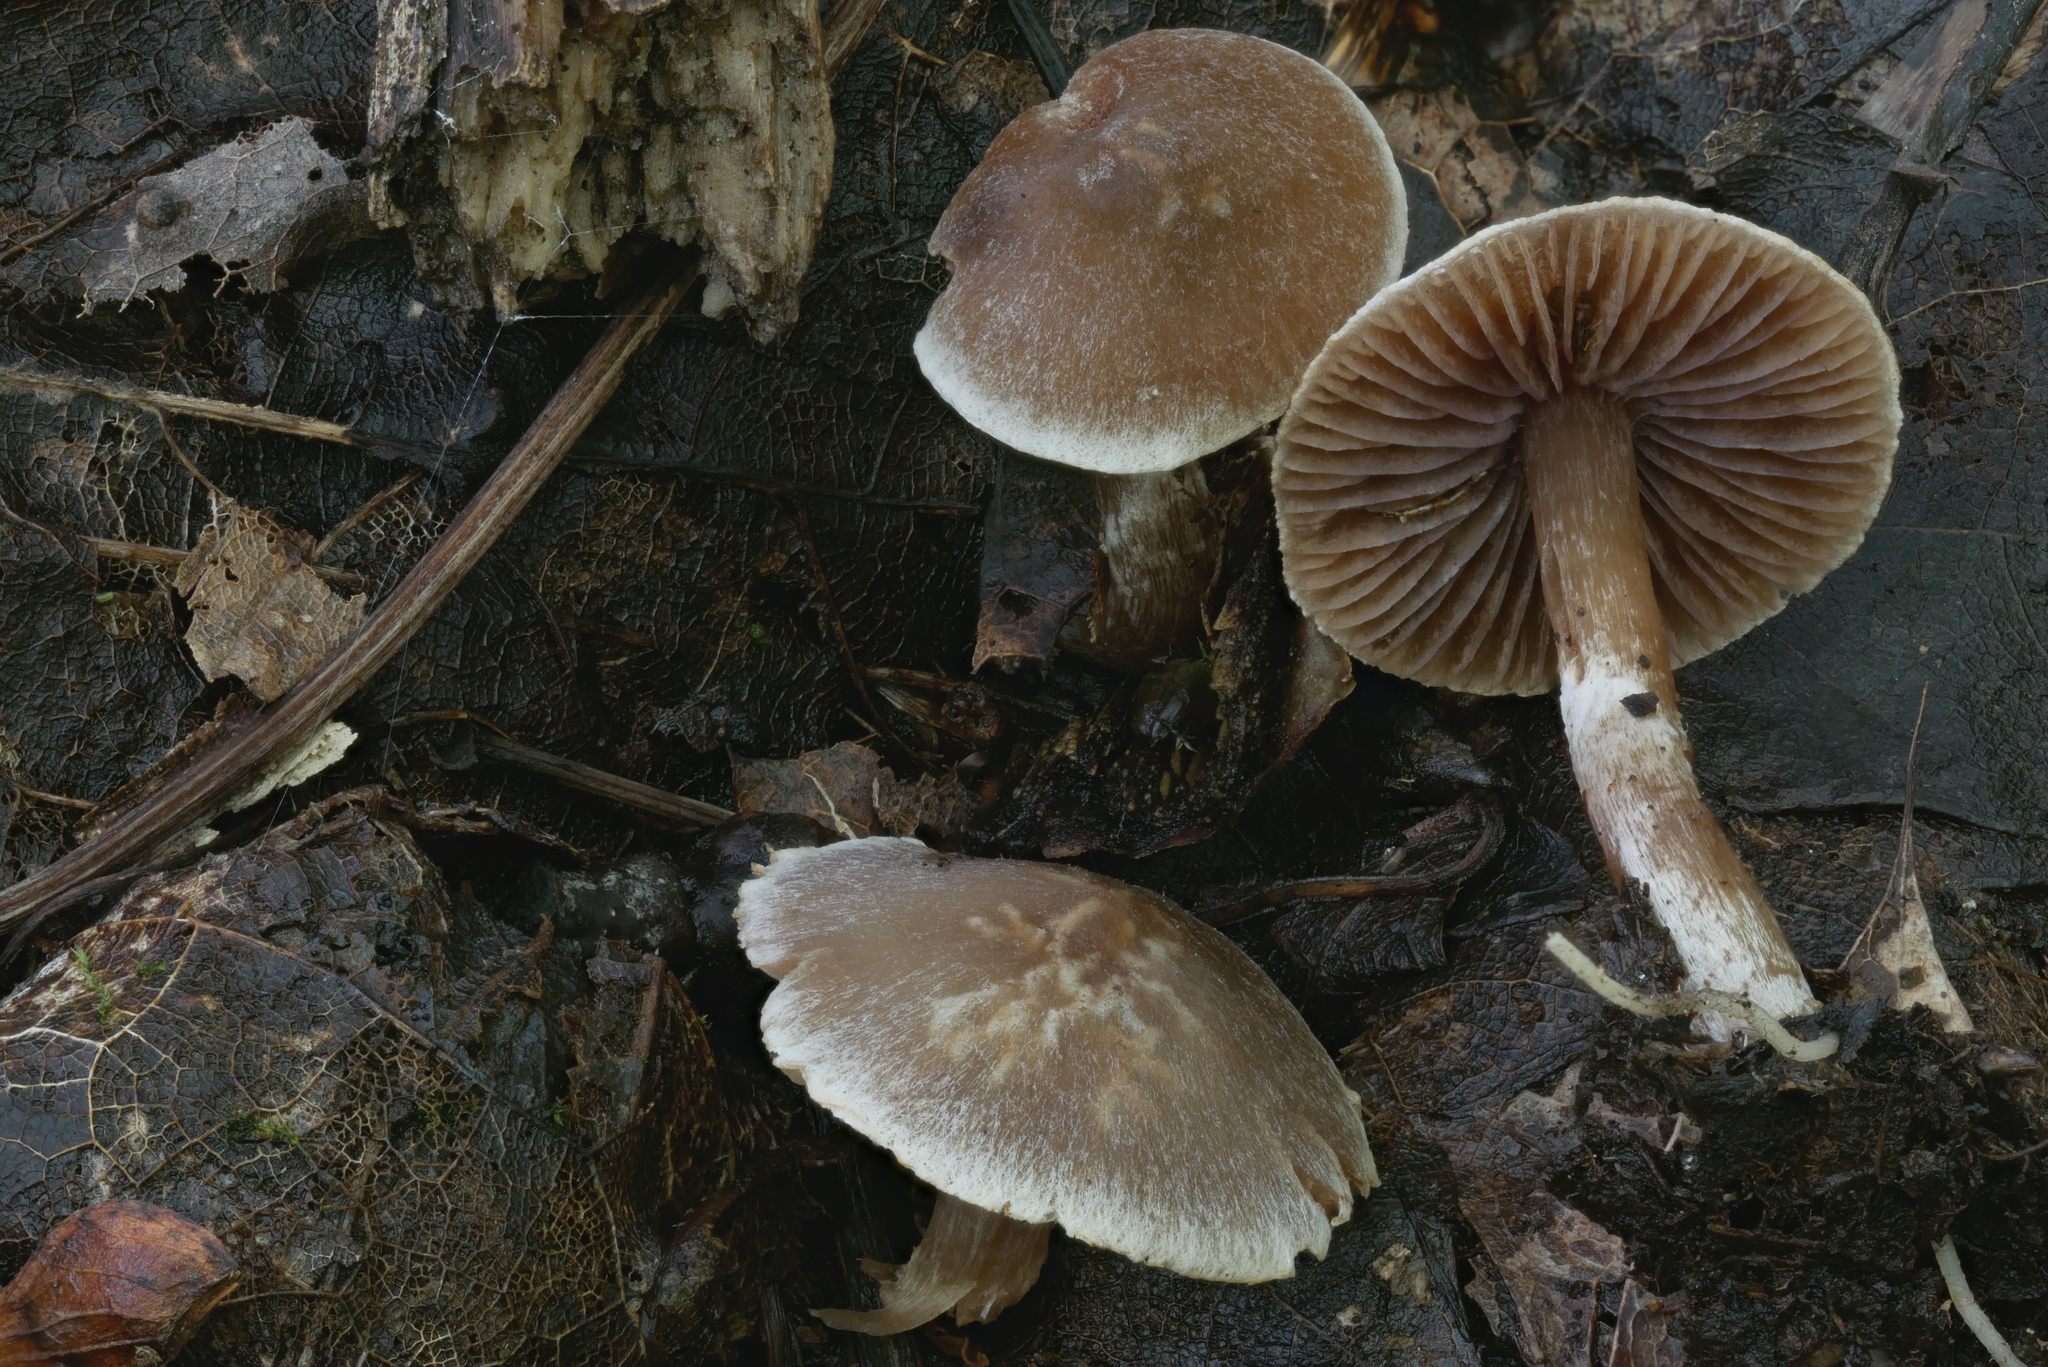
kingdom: Fungi
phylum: Basidiomycota
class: Agaricomycetes
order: Agaricales
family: Cortinariaceae
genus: Cortinarius
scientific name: Cortinarius fragrantissimus
